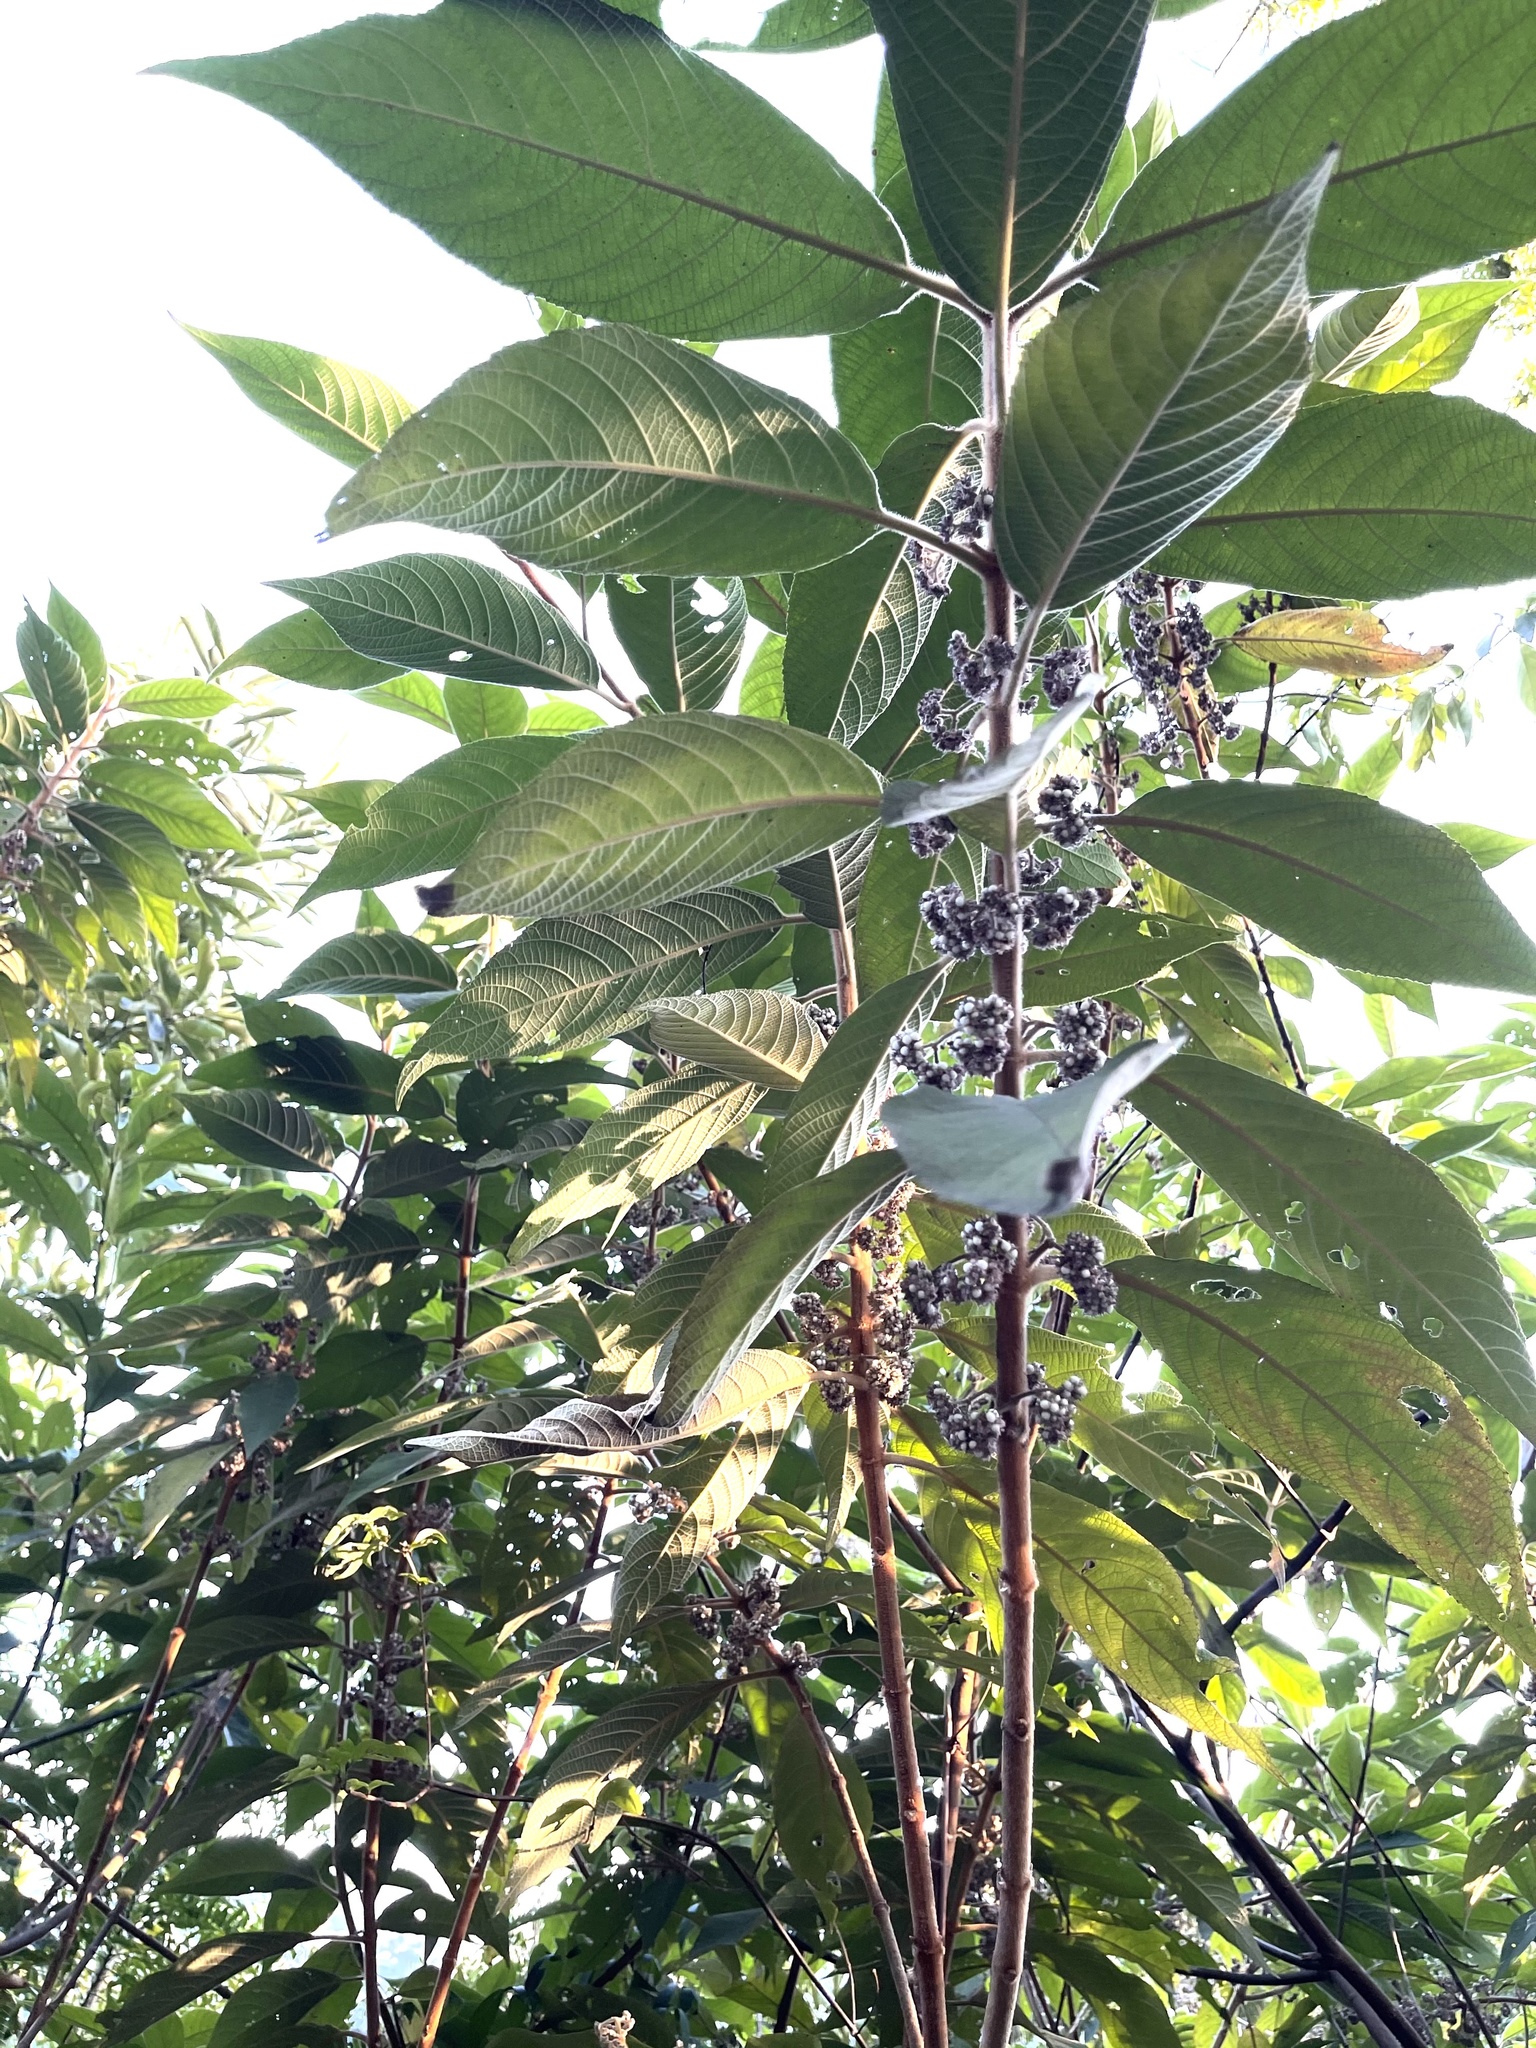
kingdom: Plantae
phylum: Tracheophyta
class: Magnoliopsida
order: Lamiales
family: Lamiaceae
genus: Callicarpa
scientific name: Callicarpa kochiana
